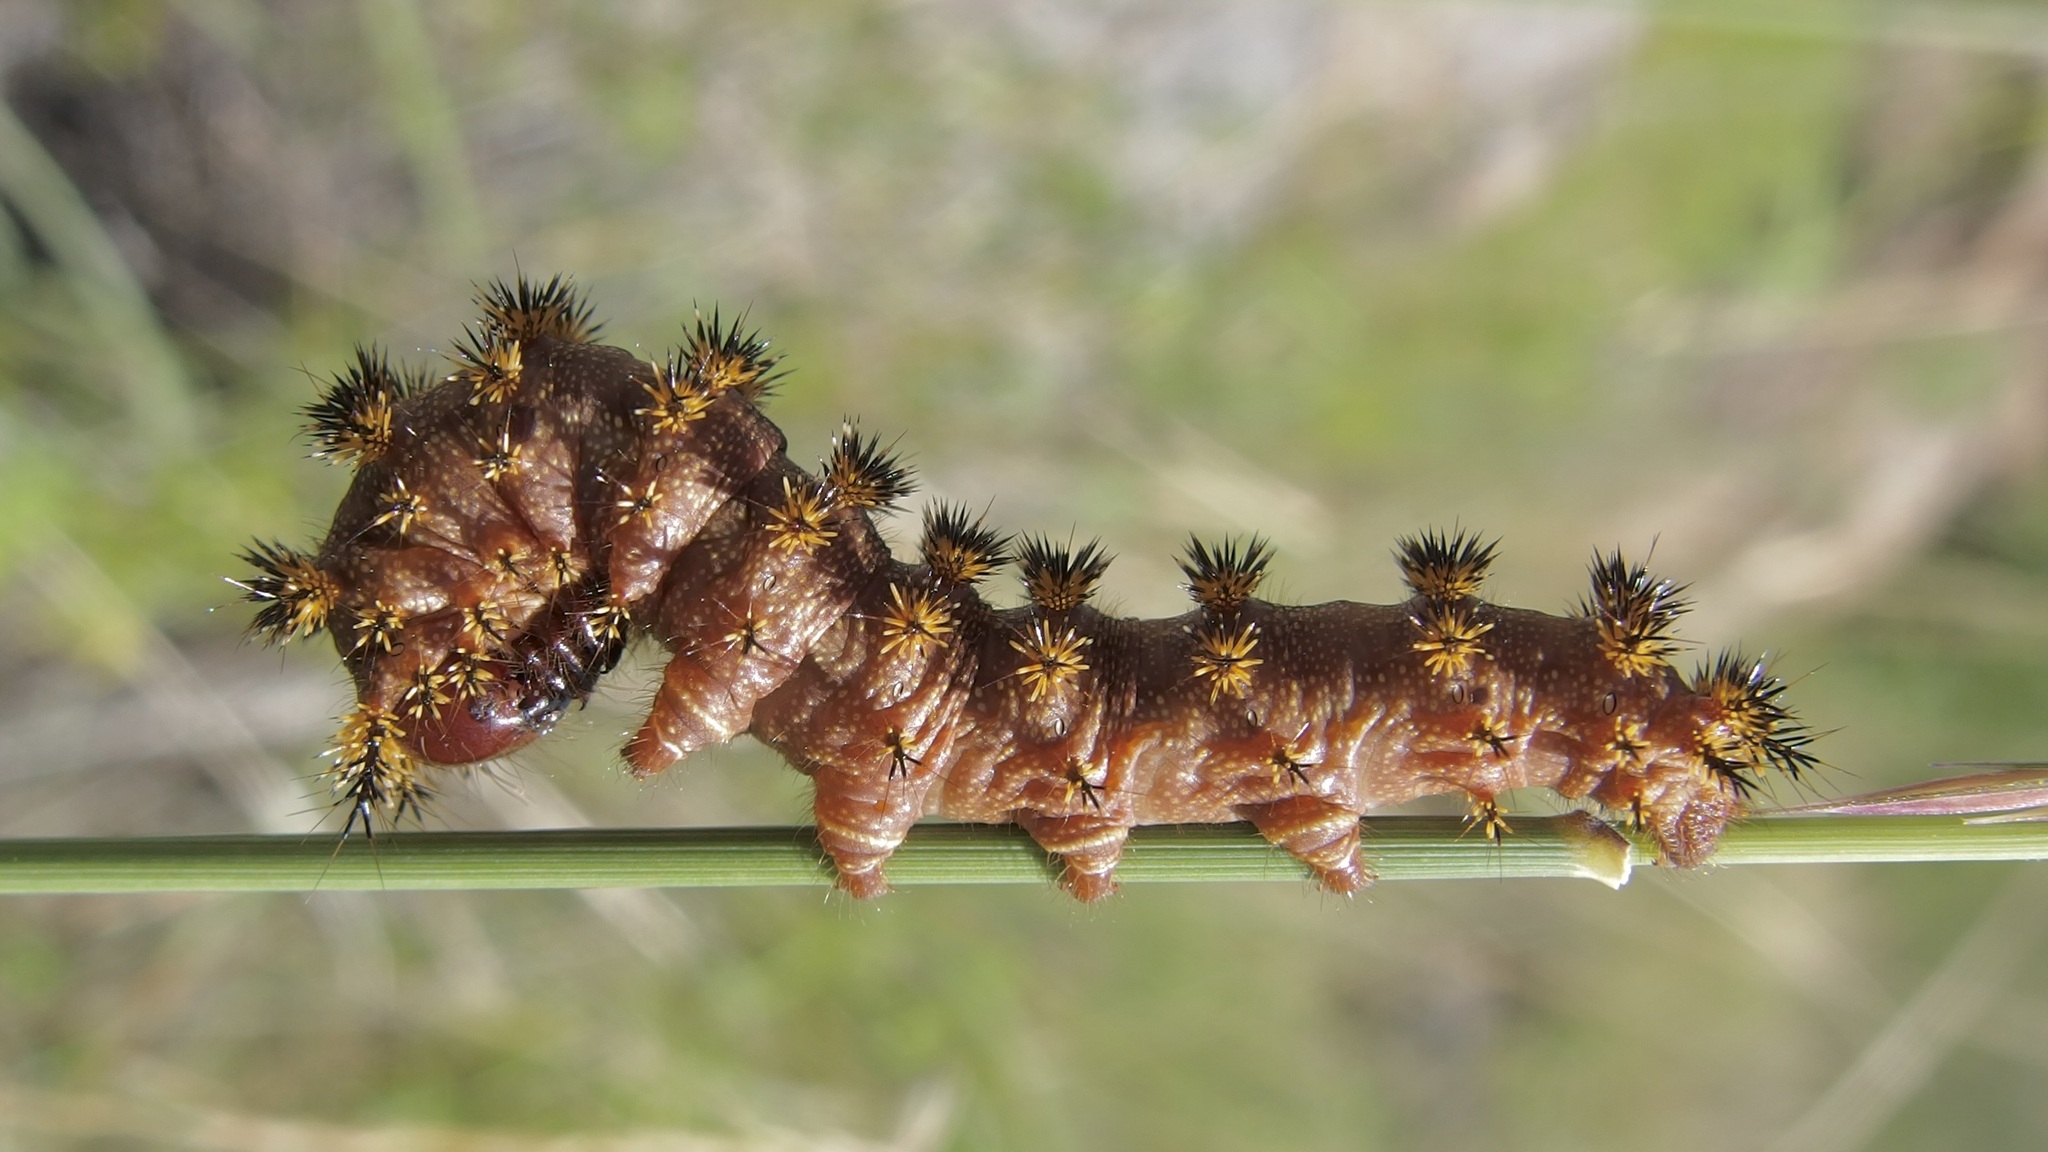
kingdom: Animalia
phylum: Arthropoda
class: Insecta
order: Lepidoptera
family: Saturniidae
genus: Hemileuca
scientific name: Hemileuca hualapai
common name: Hualapai buckmoth
